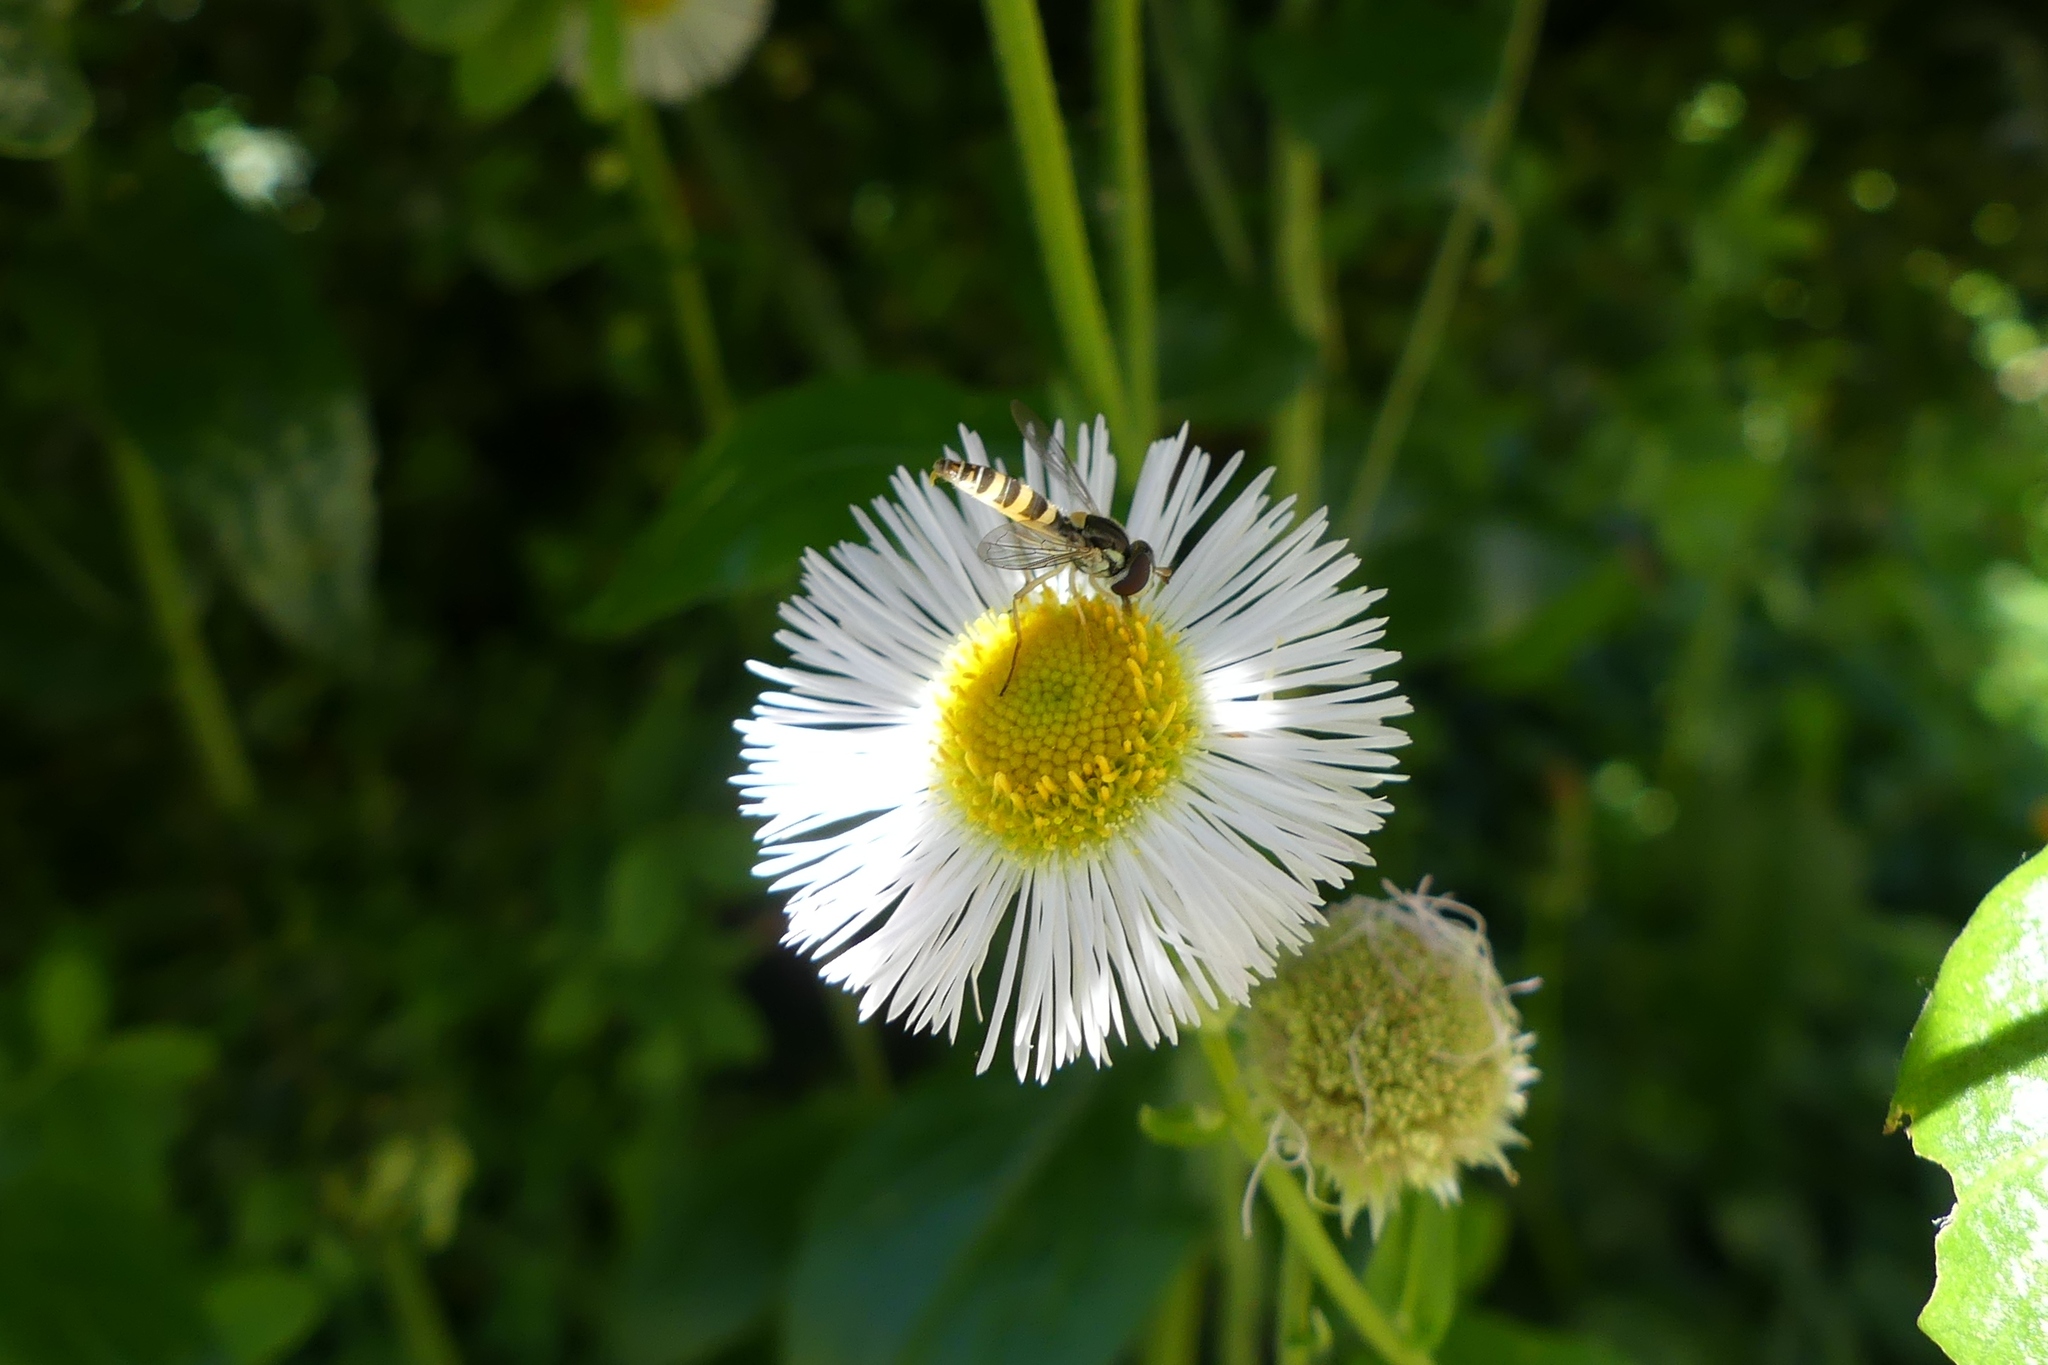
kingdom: Animalia
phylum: Arthropoda
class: Insecta
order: Diptera
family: Syrphidae
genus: Sphaerophoria
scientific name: Sphaerophoria contigua
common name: Tufted globetail
